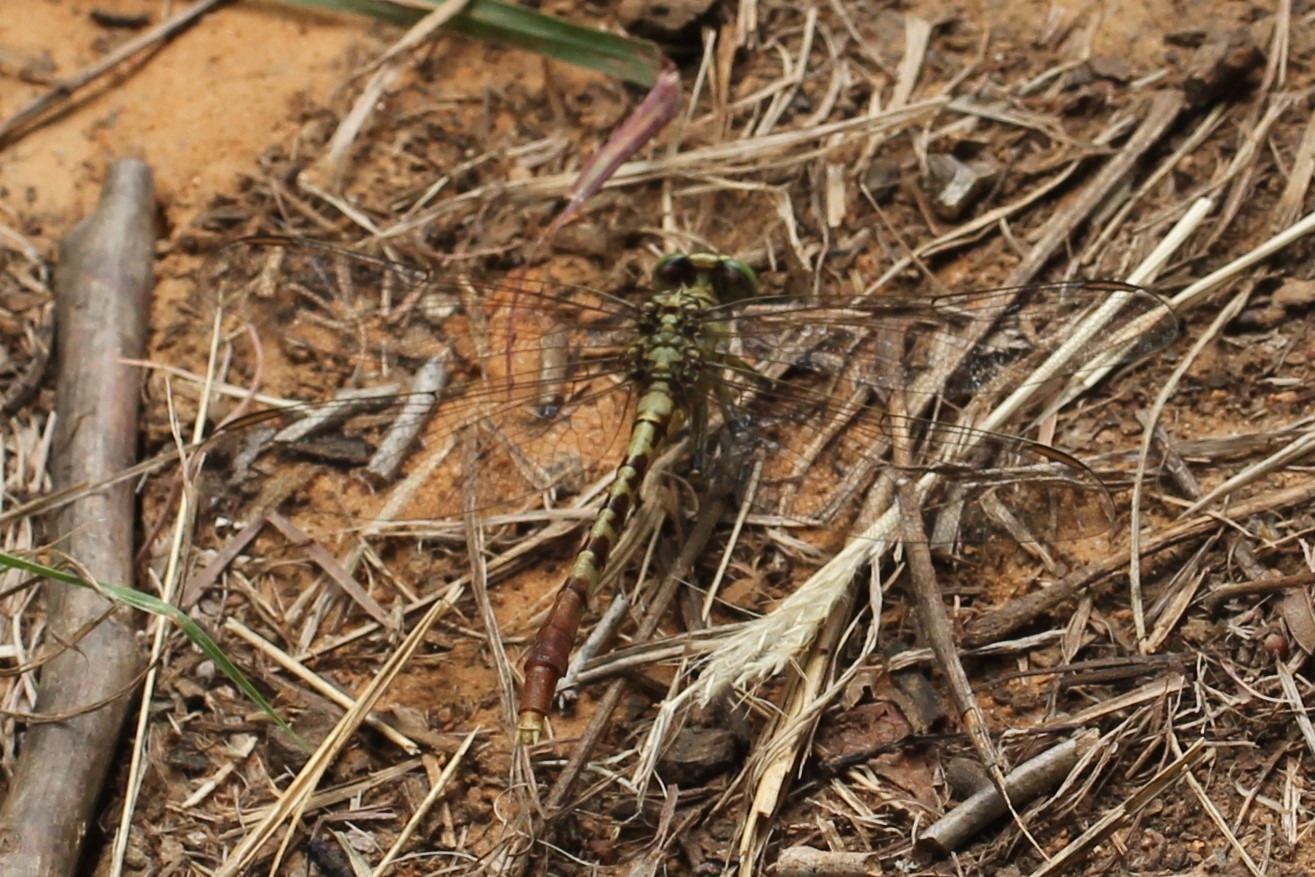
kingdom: Animalia
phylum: Arthropoda
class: Insecta
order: Odonata
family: Gomphidae
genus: Arigomphus
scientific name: Arigomphus submedianus
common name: Jade clubtail
